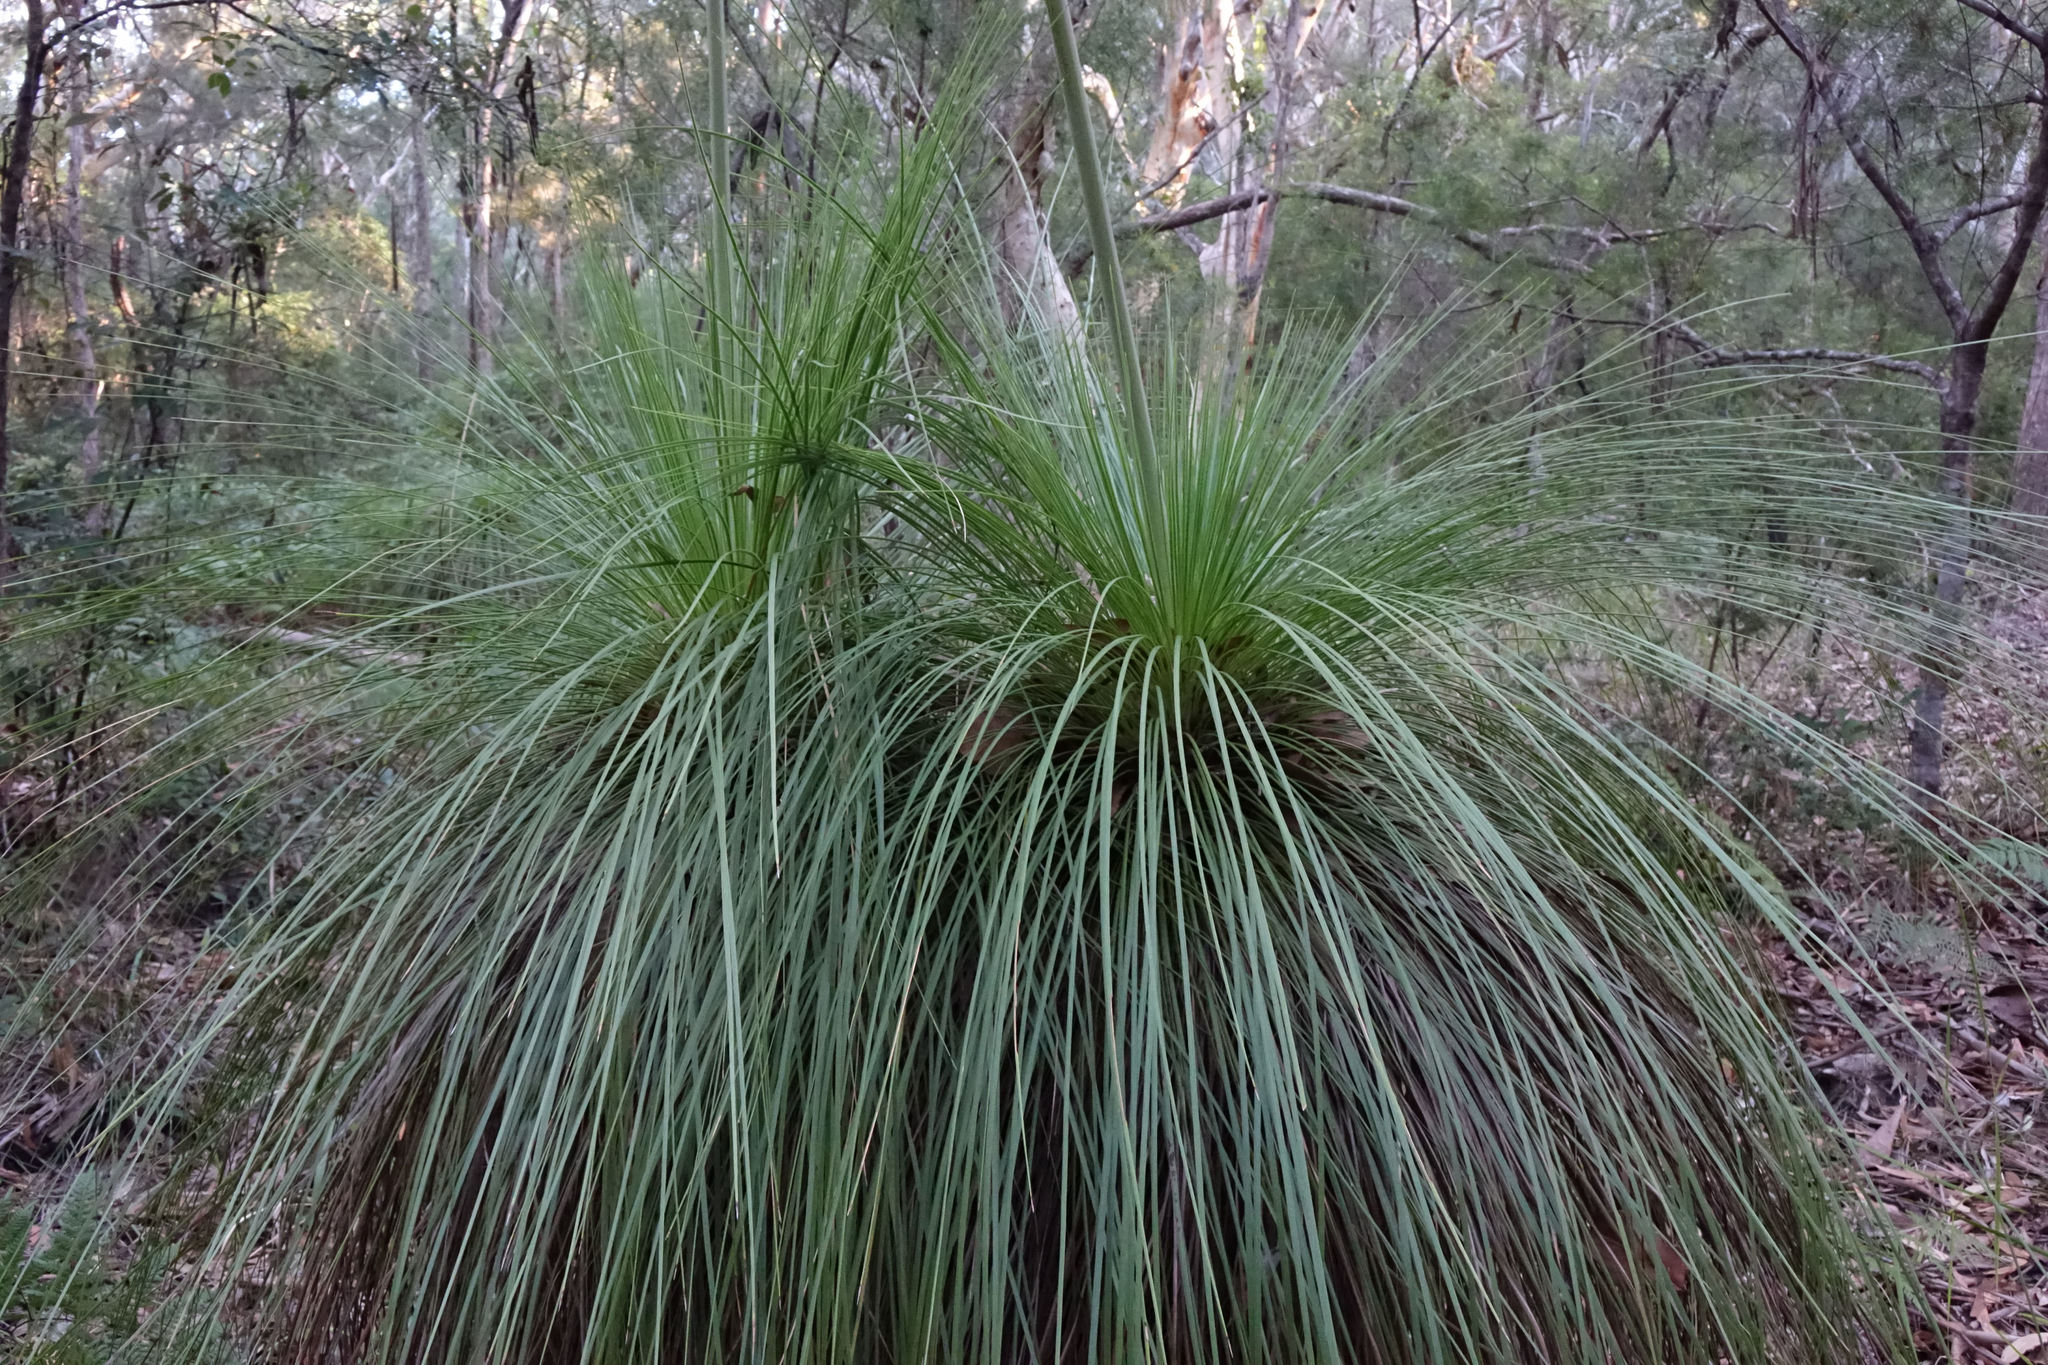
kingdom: Plantae
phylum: Tracheophyta
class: Liliopsida
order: Asparagales
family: Asphodelaceae
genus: Xanthorrhoea
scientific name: Xanthorrhoea latifolia
